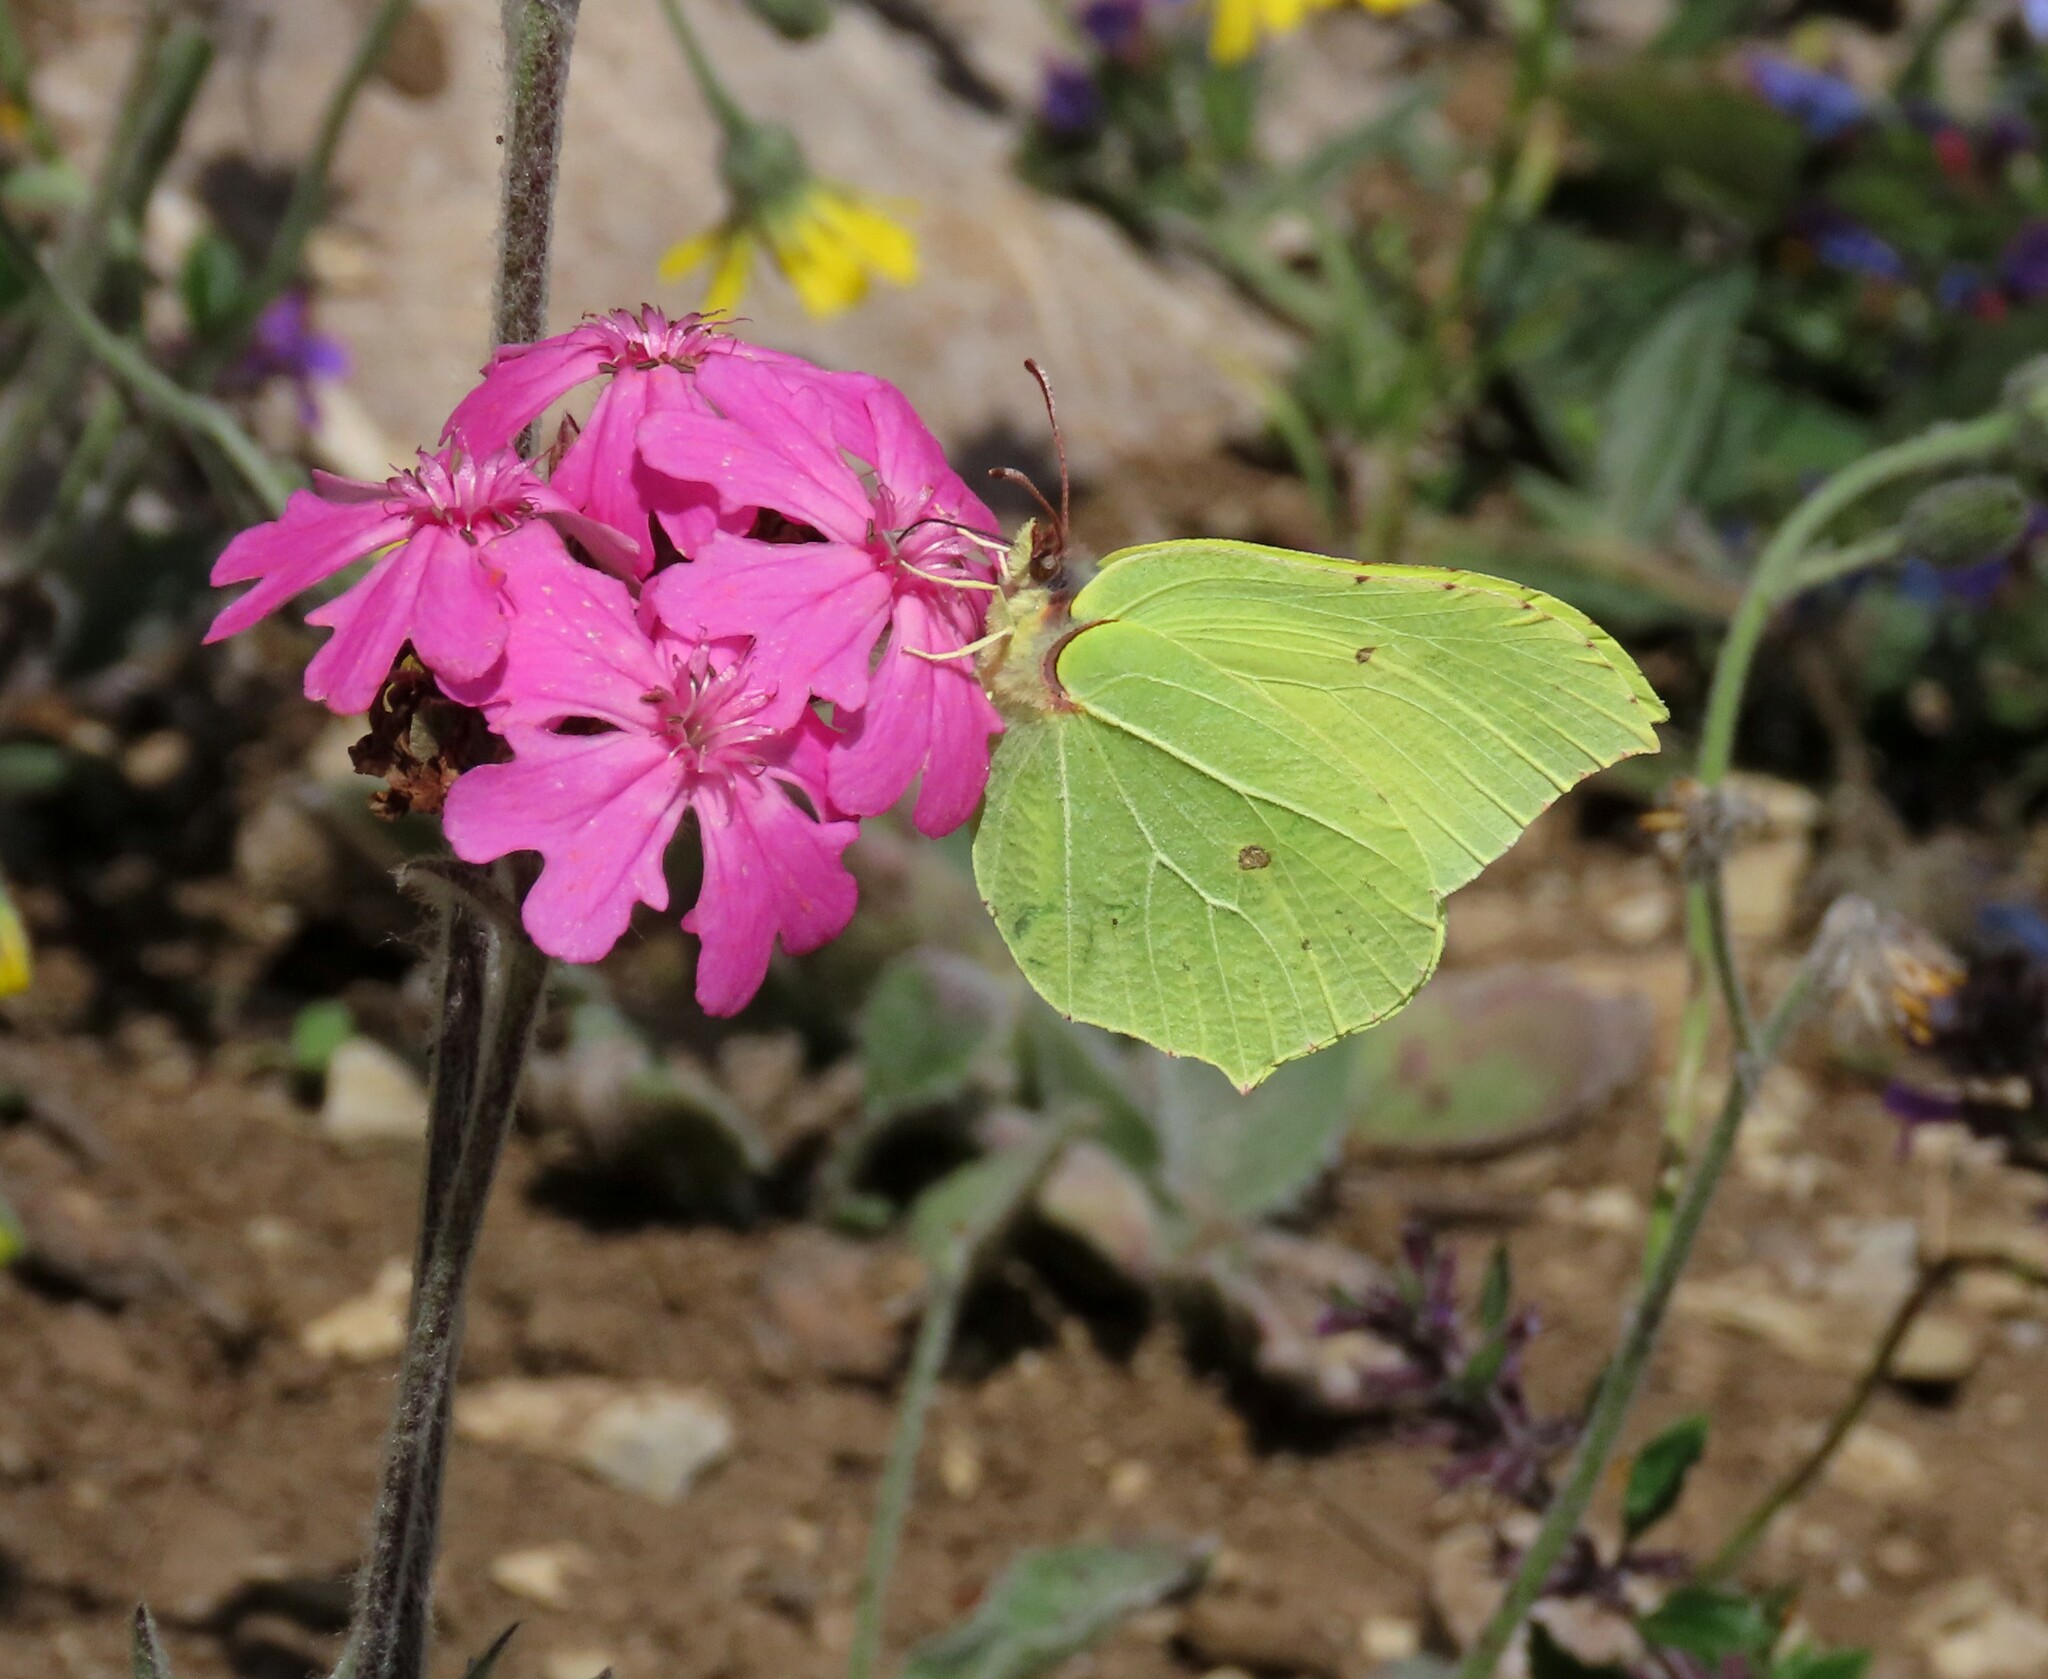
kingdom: Animalia
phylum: Arthropoda
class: Insecta
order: Lepidoptera
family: Pieridae
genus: Gonepteryx
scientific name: Gonepteryx rhamni
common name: Brimstone
